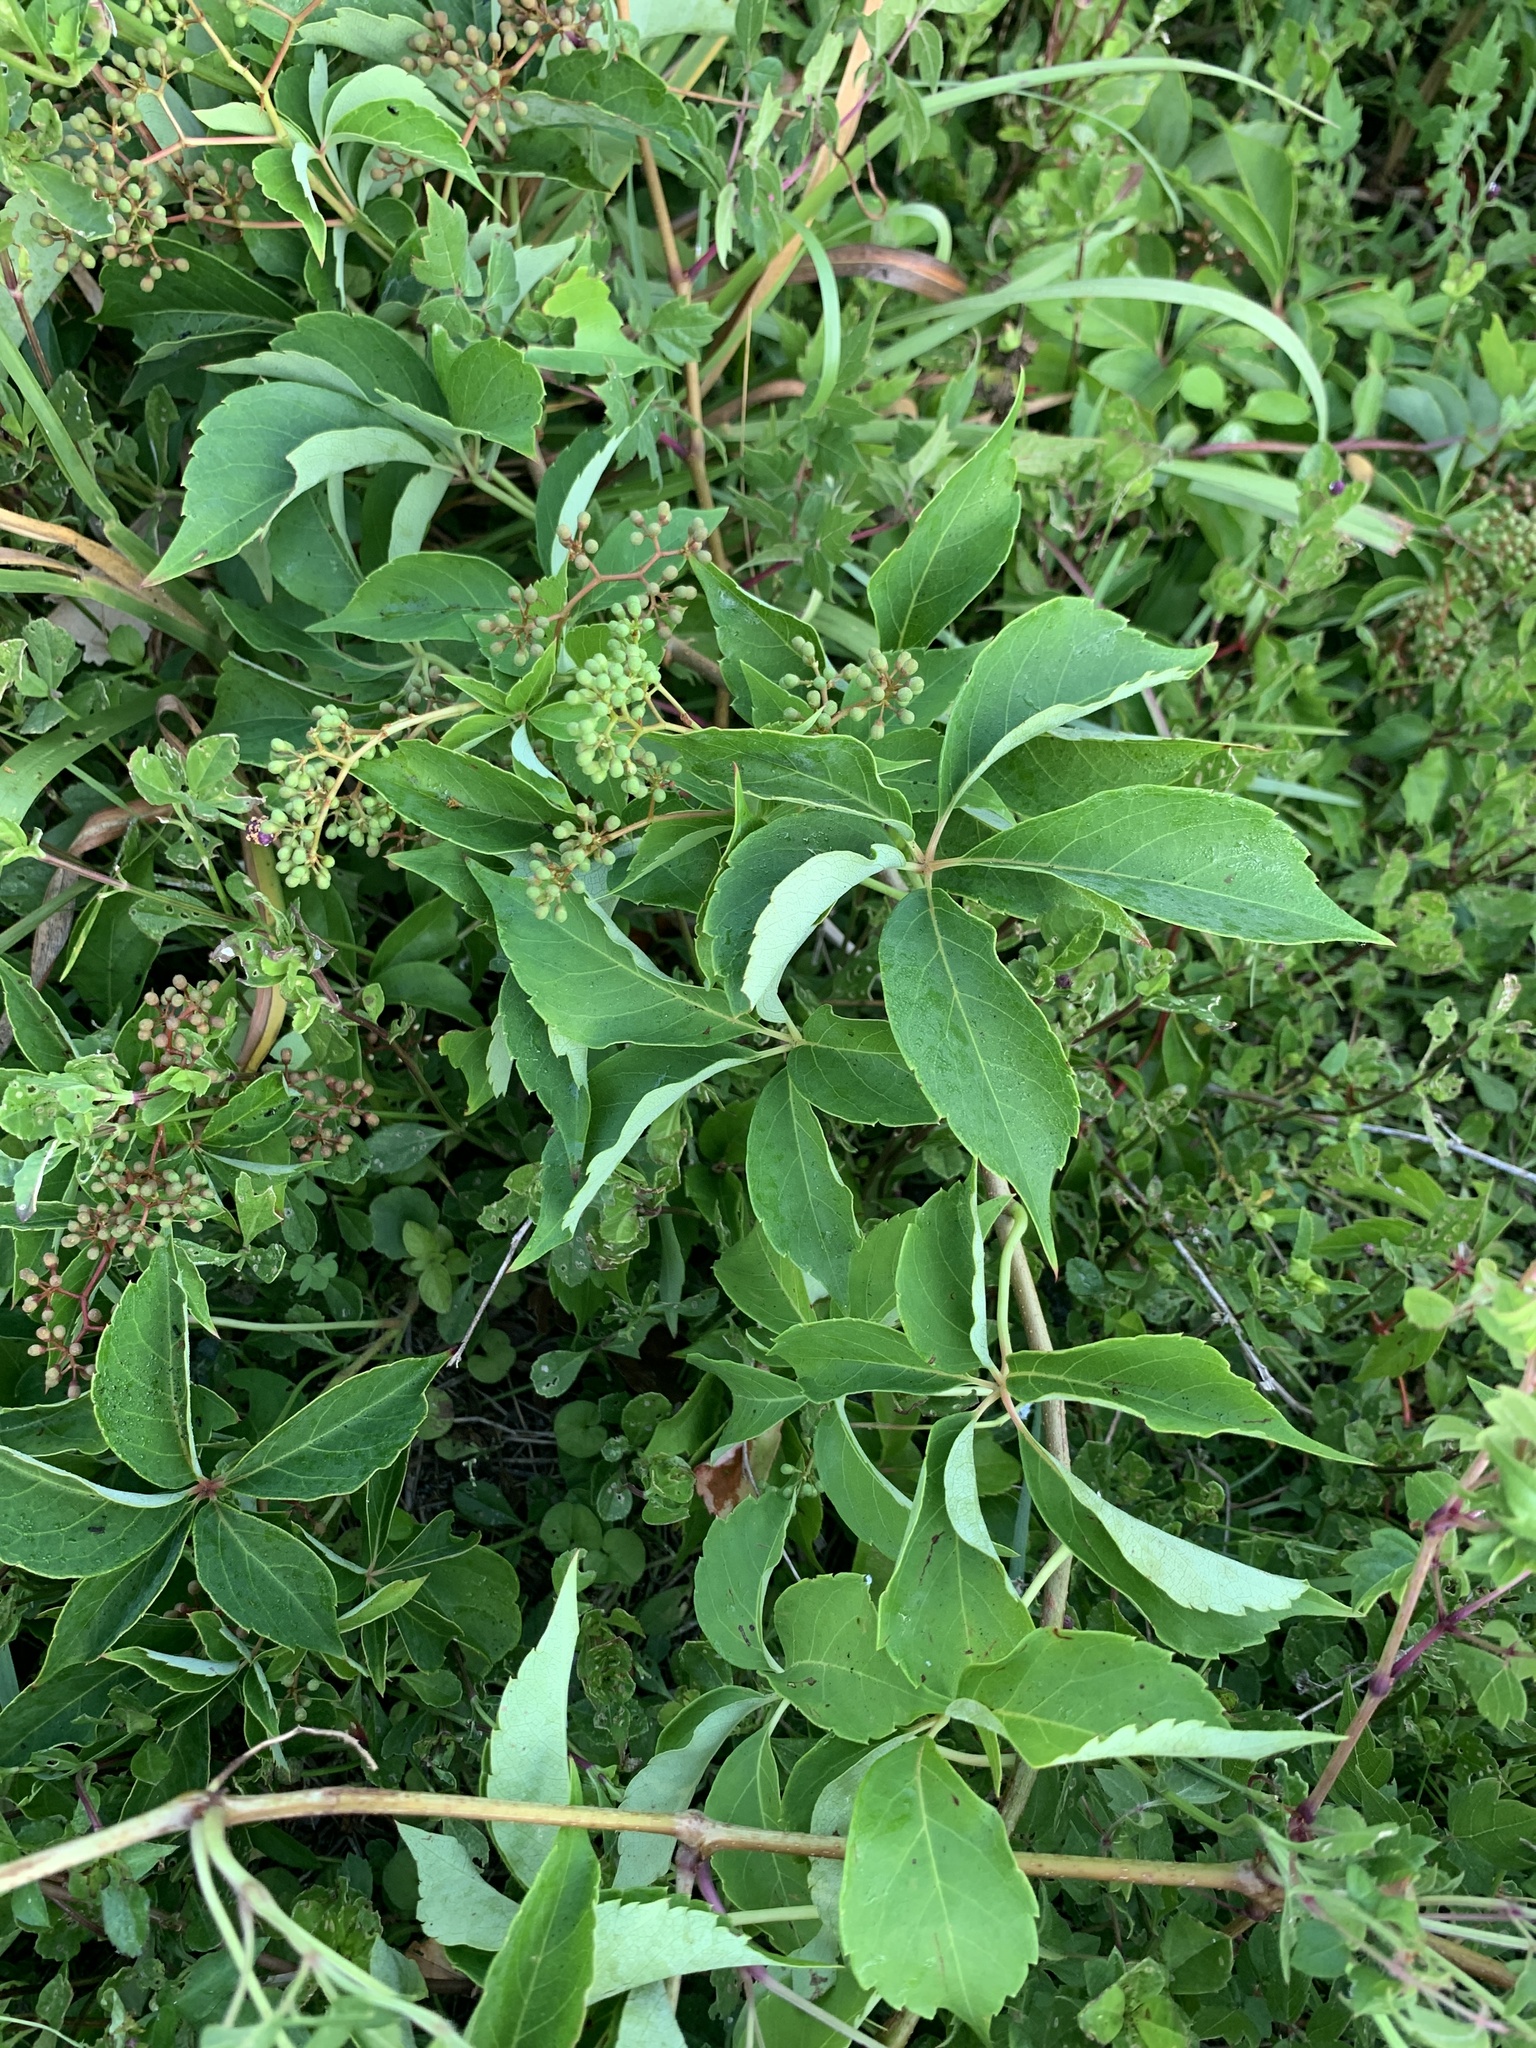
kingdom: Plantae
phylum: Tracheophyta
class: Magnoliopsida
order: Vitales
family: Vitaceae
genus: Parthenocissus
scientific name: Parthenocissus quinquefolia
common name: Virginia-creeper
